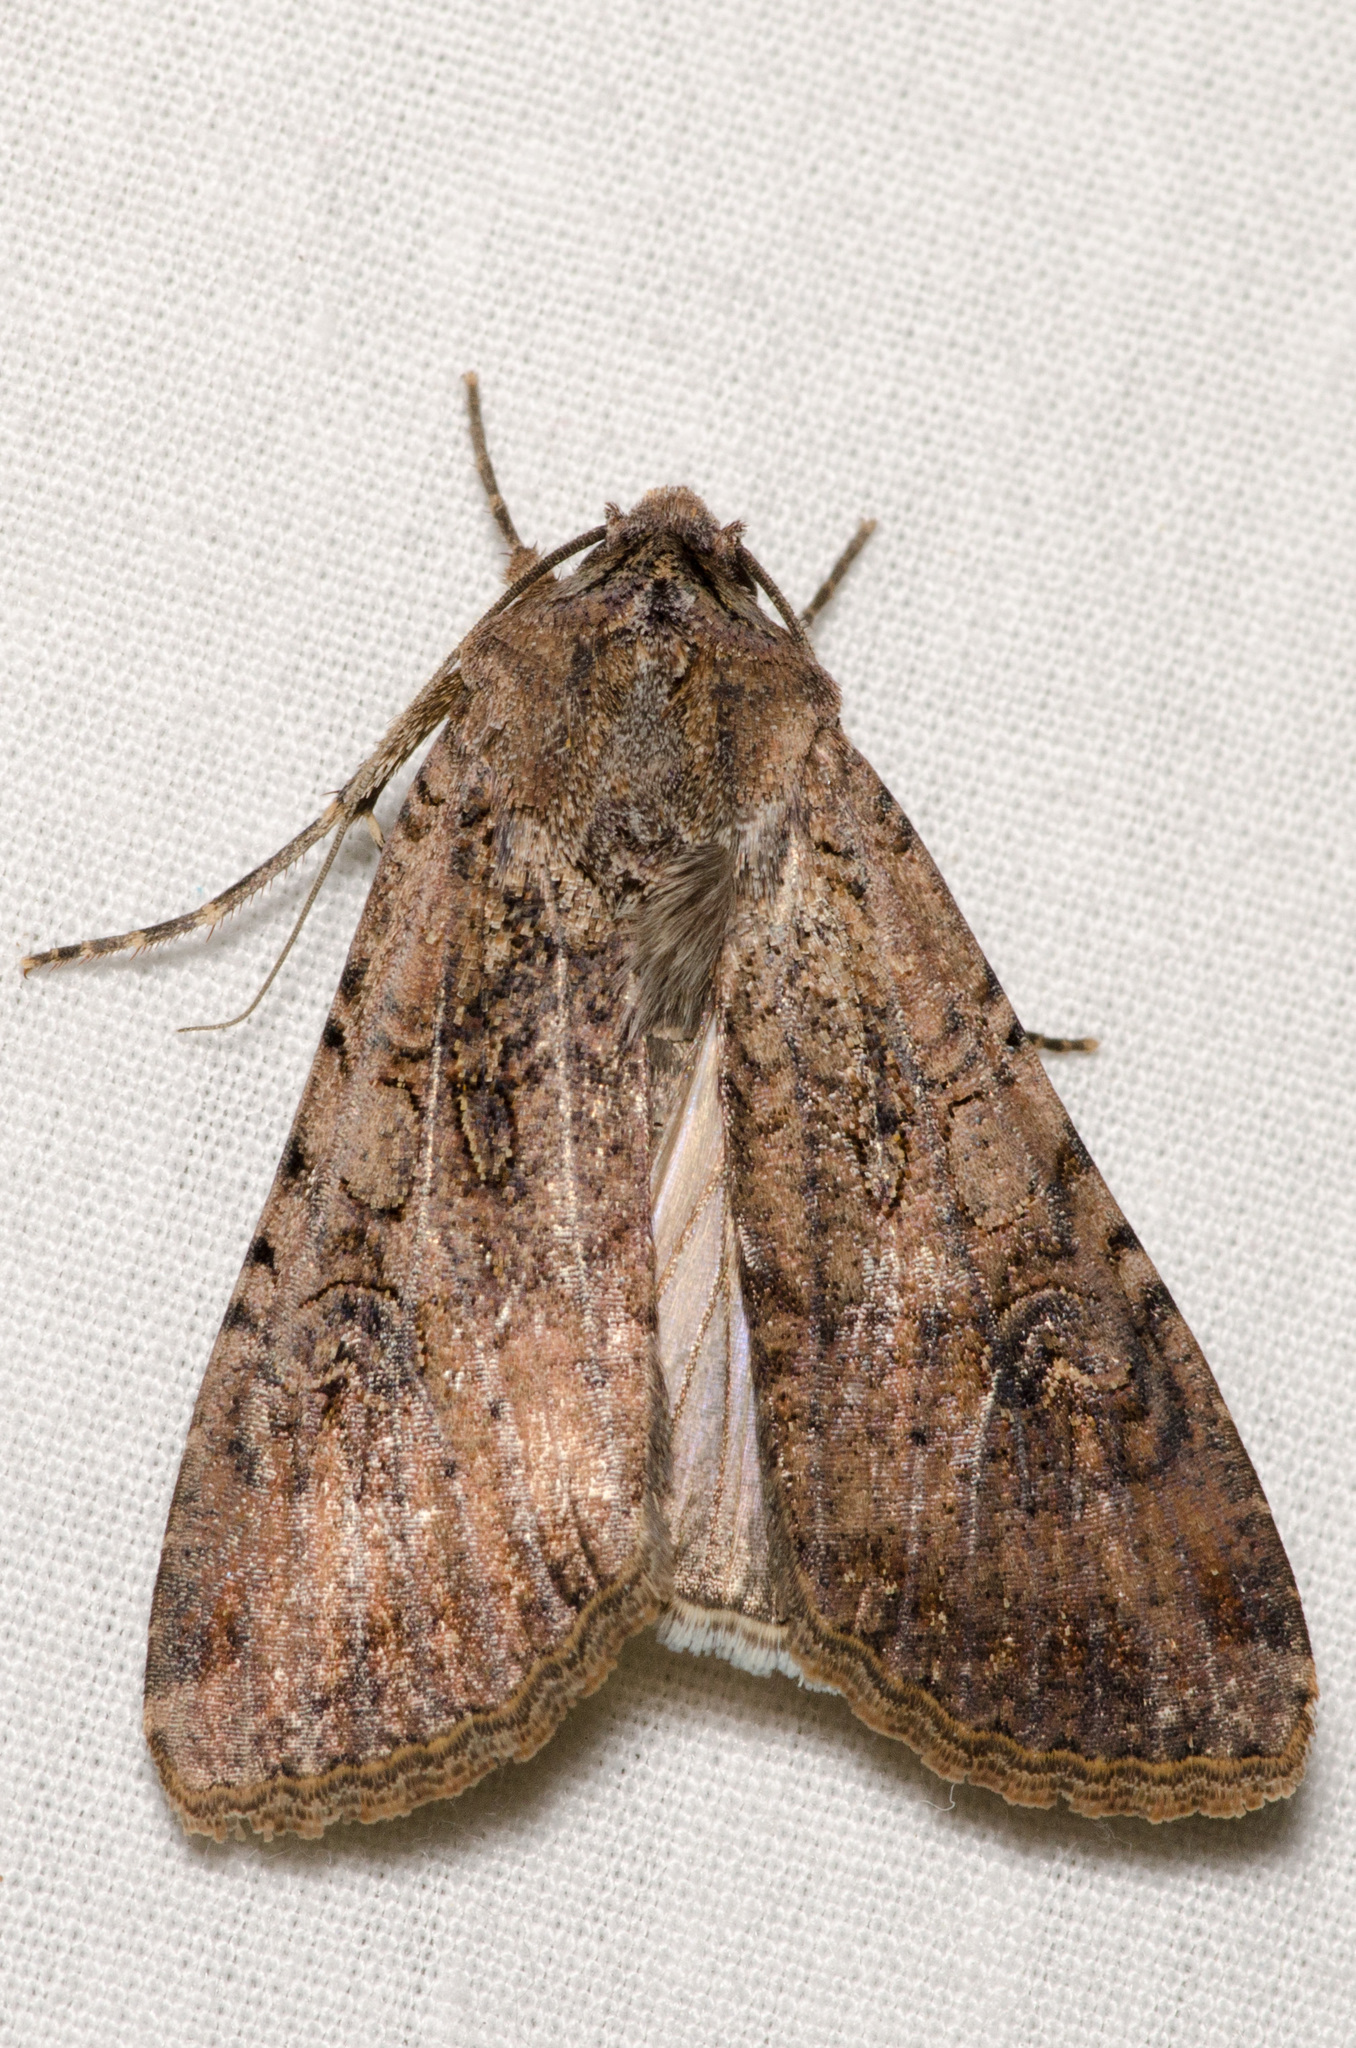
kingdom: Animalia
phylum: Arthropoda
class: Insecta
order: Lepidoptera
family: Noctuidae
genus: Peridroma
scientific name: Peridroma saucia
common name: Pearly underwing
